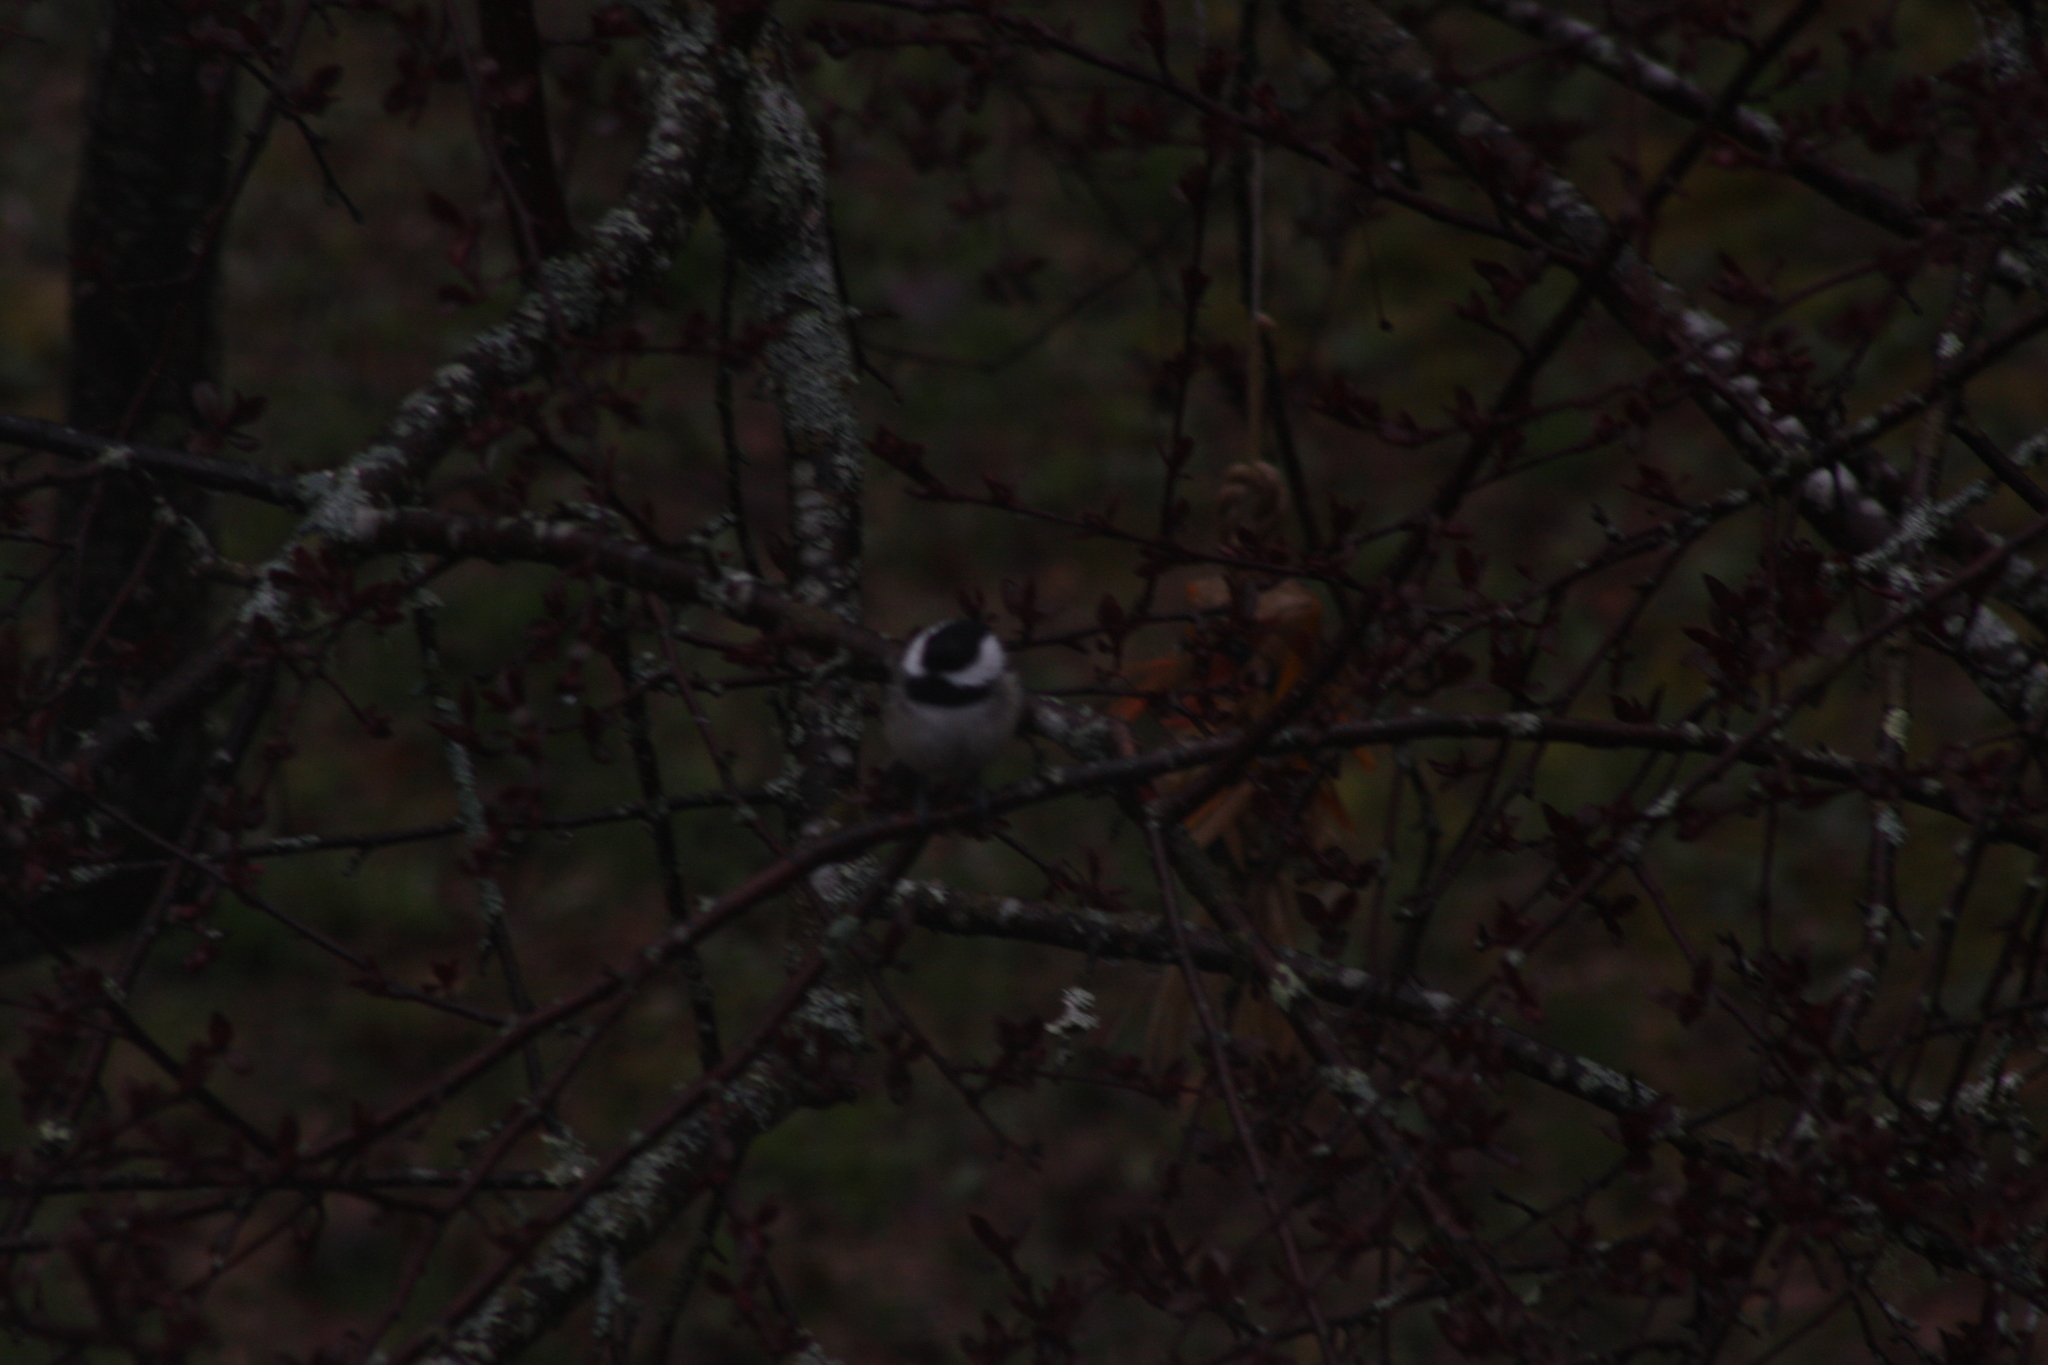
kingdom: Animalia
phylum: Chordata
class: Aves
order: Passeriformes
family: Paridae
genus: Poecile
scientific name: Poecile atricapillus
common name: Black-capped chickadee
